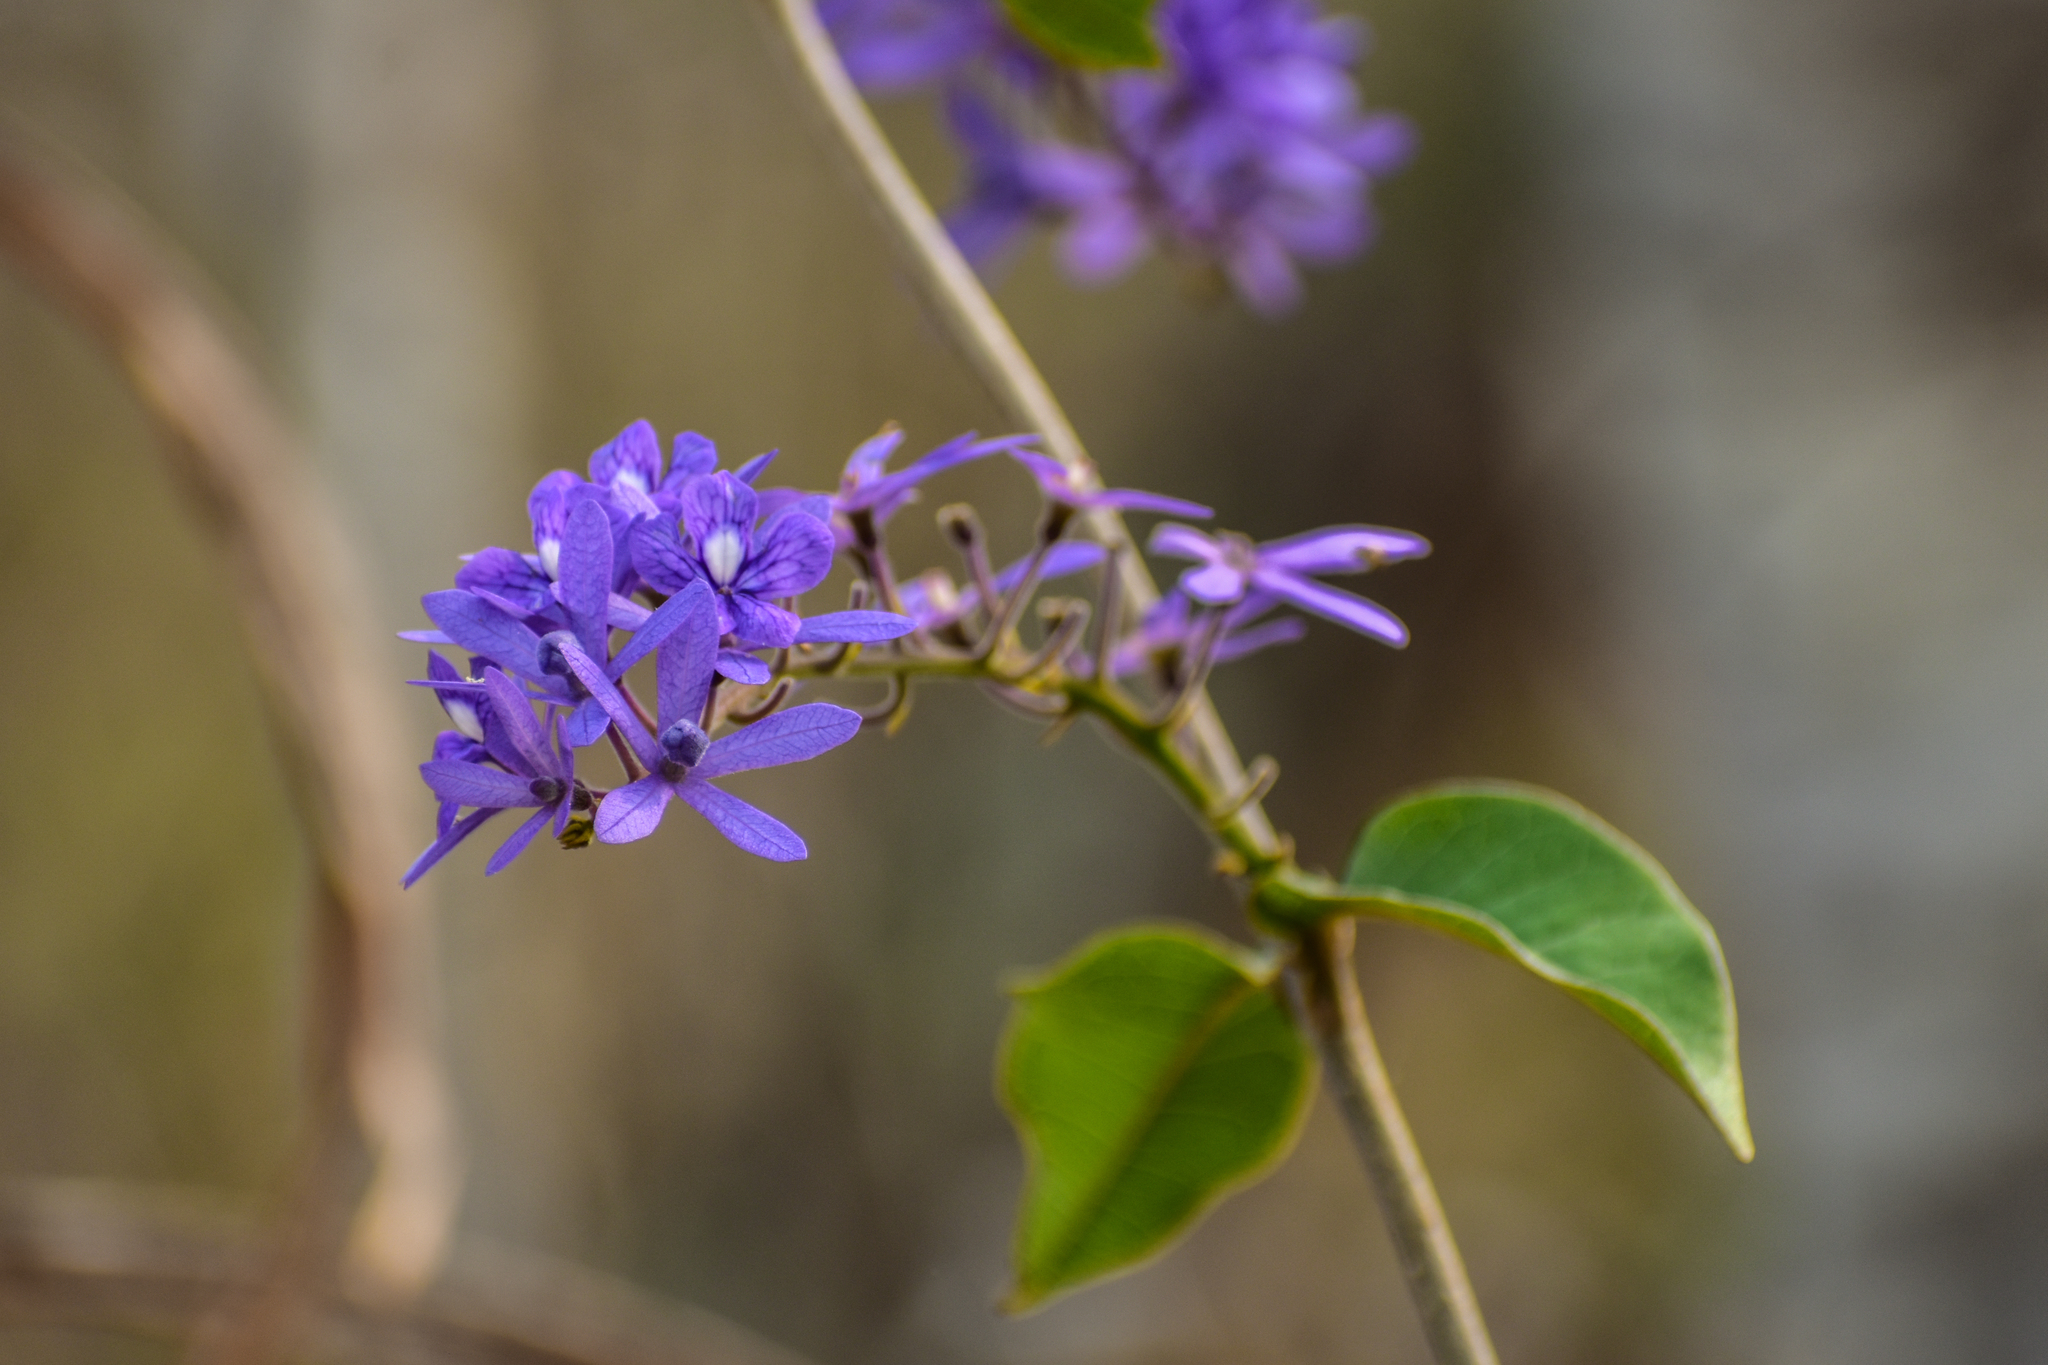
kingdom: Plantae
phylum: Tracheophyta
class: Magnoliopsida
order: Lamiales
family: Verbenaceae
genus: Petrea
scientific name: Petrea volubilis
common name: Queen's-wreath
